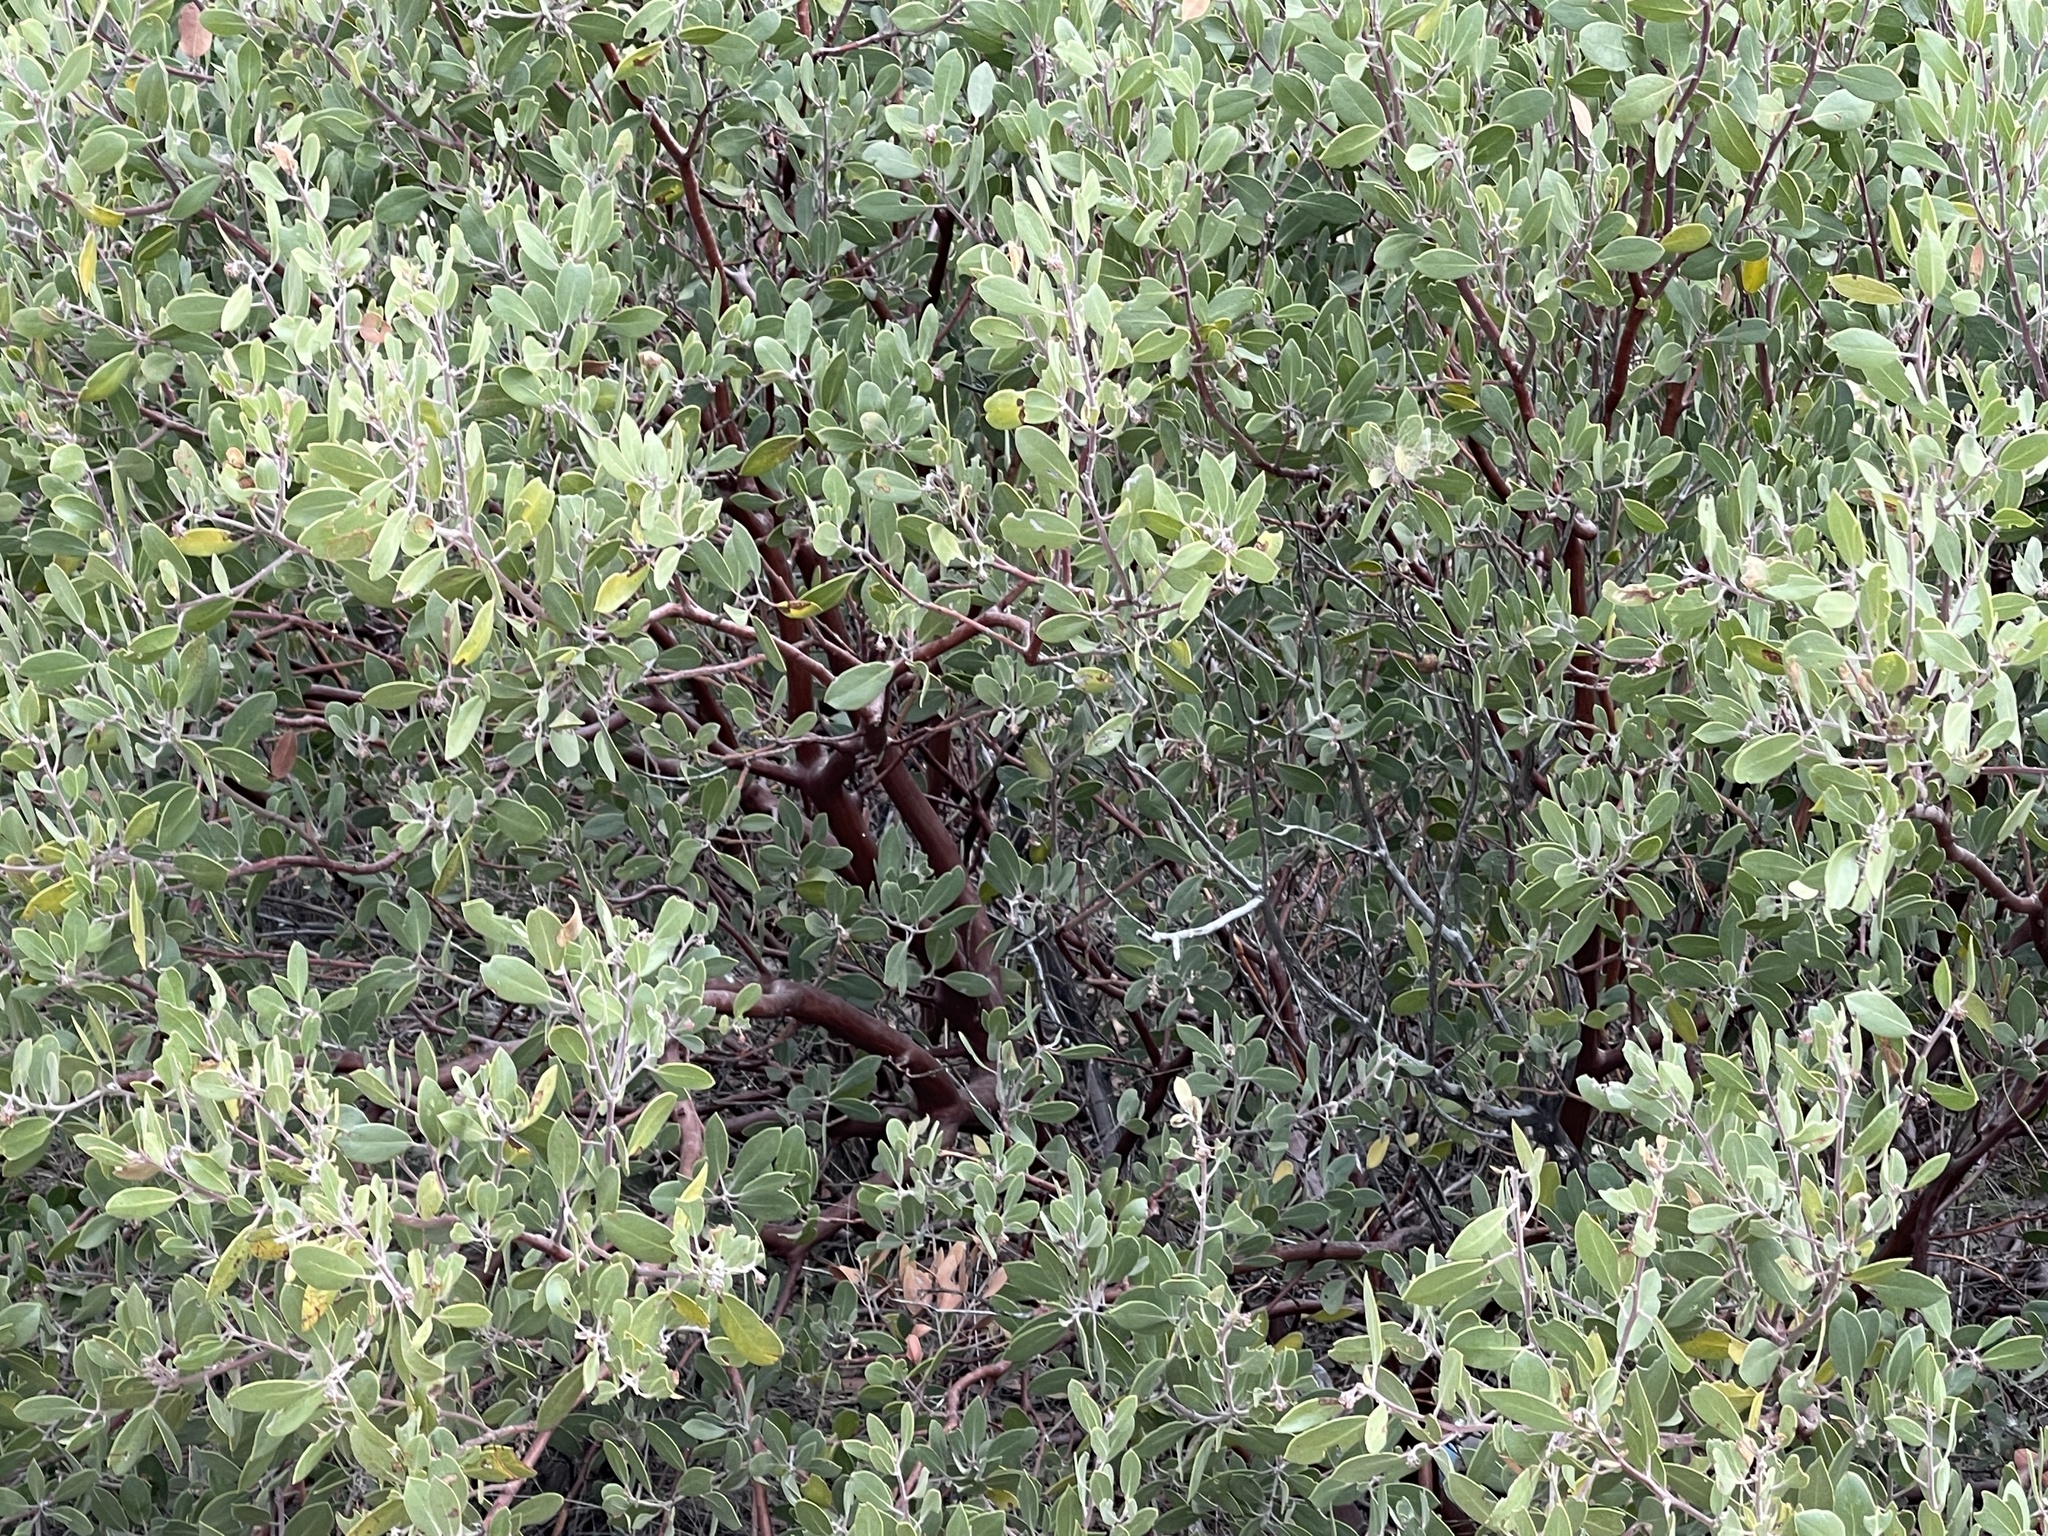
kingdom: Plantae
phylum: Tracheophyta
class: Magnoliopsida
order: Ericales
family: Ericaceae
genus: Arctostaphylos
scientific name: Arctostaphylos pungens
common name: Mexican manzanita
